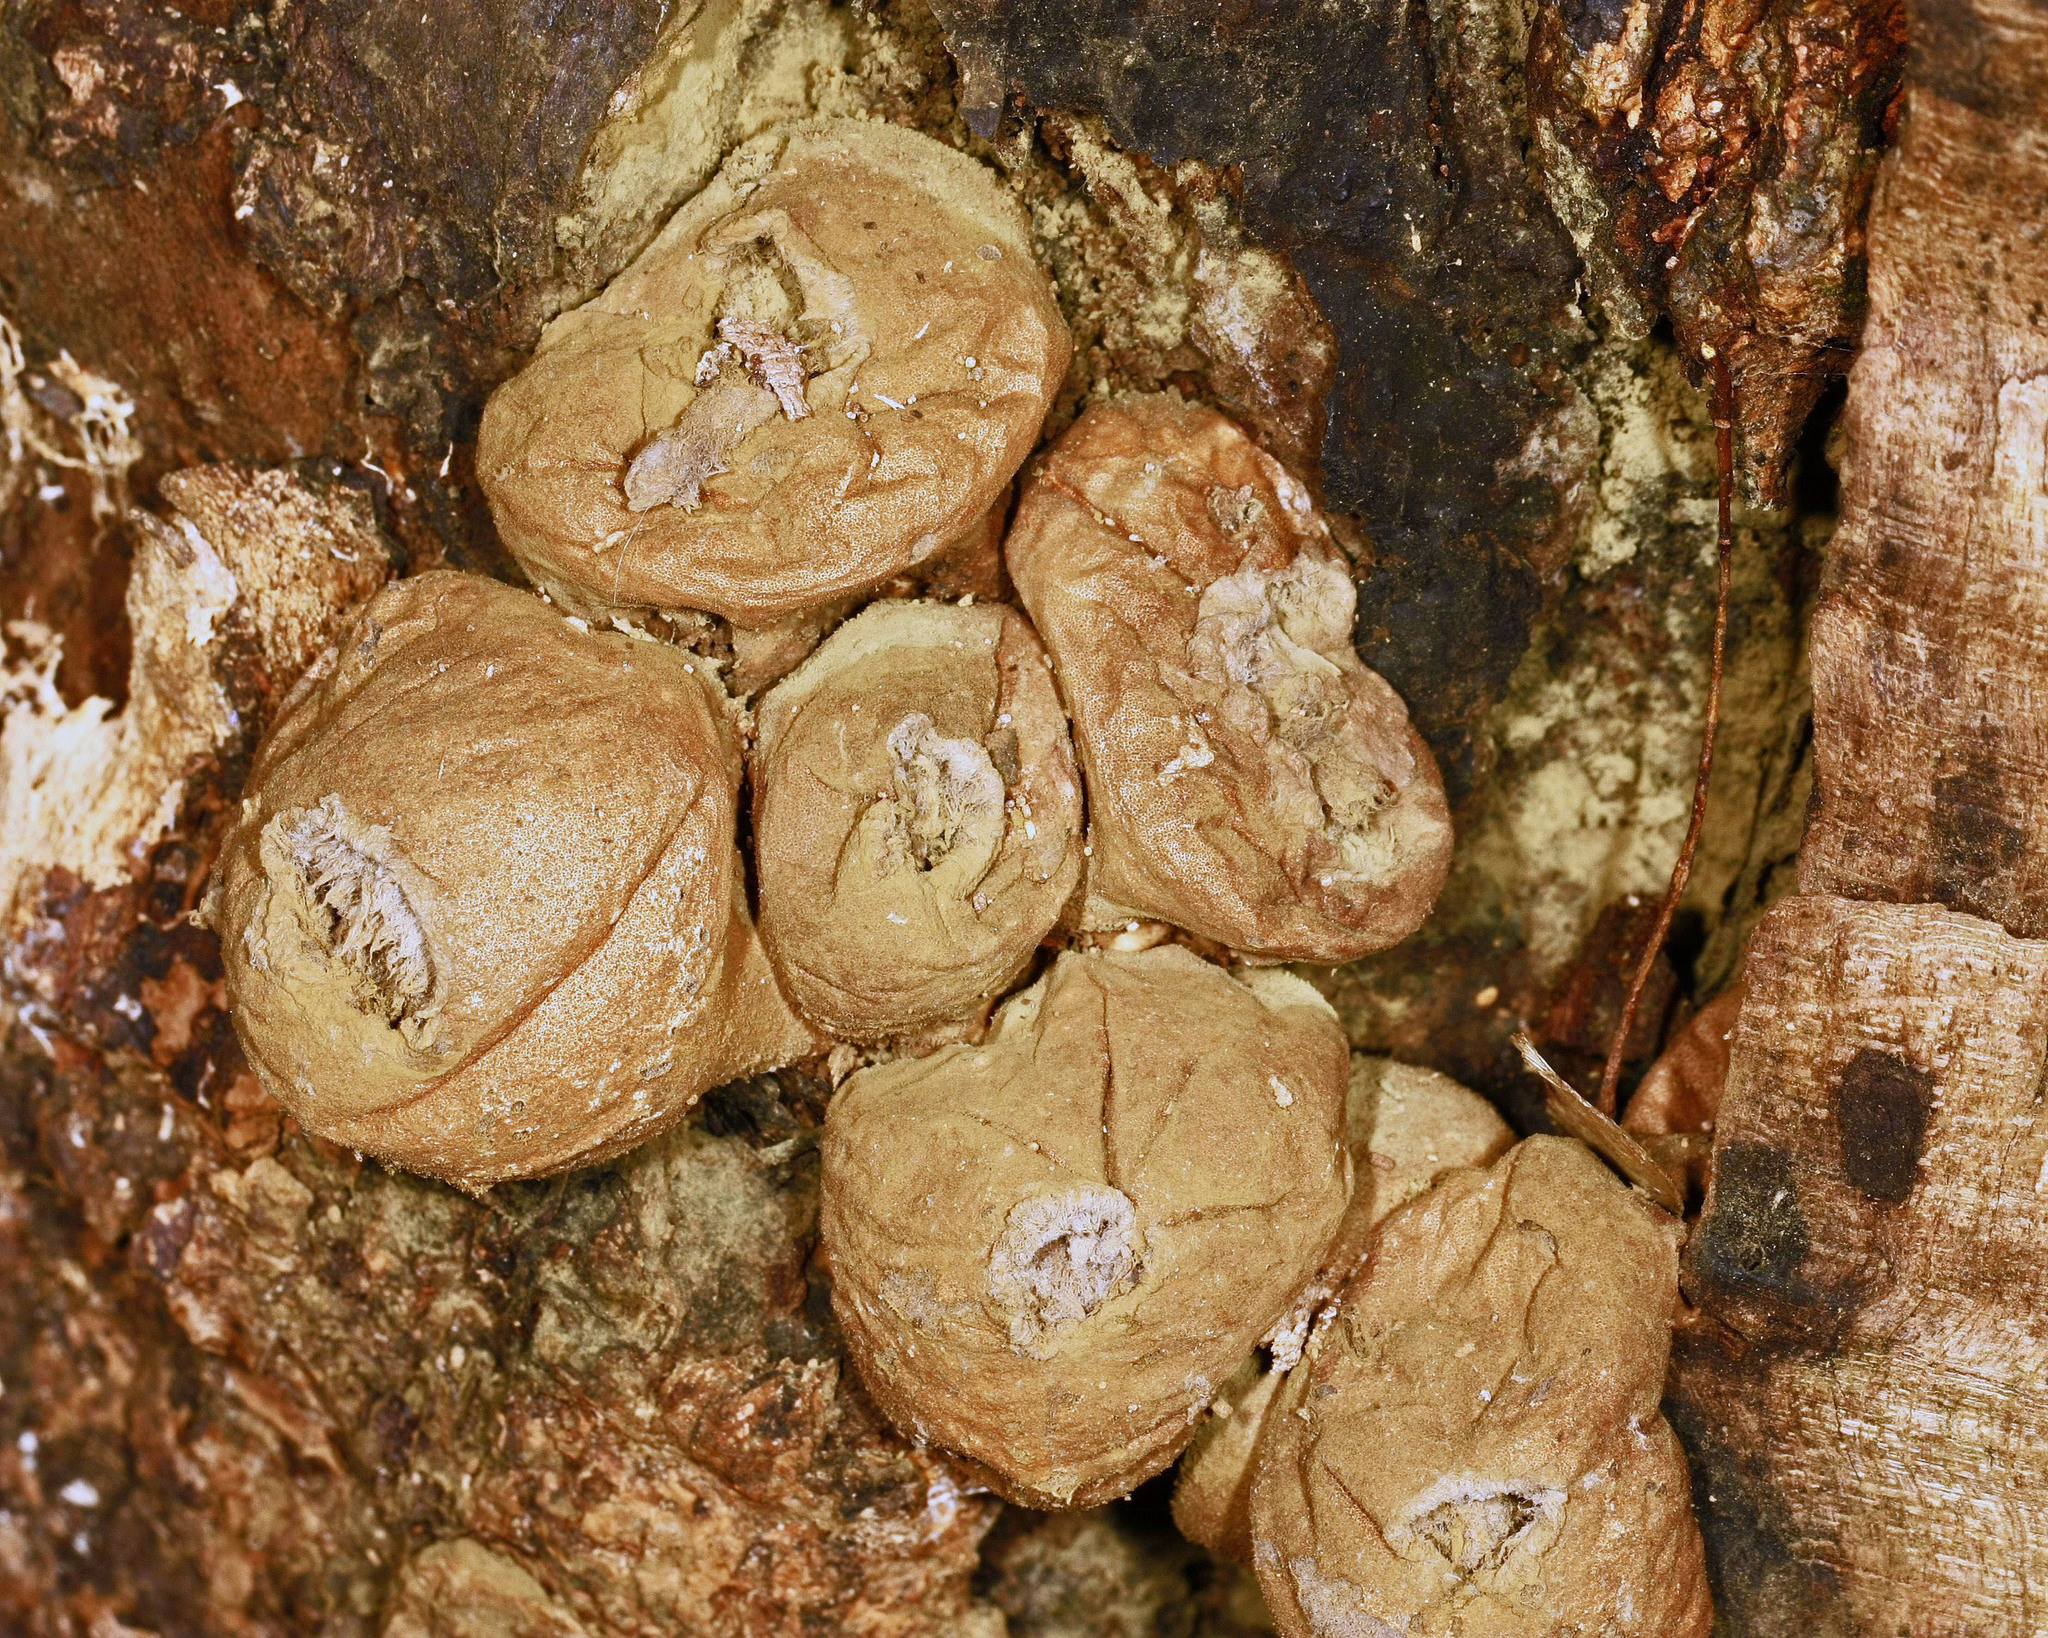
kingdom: Fungi
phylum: Basidiomycota
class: Agaricomycetes
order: Agaricales
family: Lycoperdaceae
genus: Apioperdon
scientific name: Apioperdon pyriforme
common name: Pear-shaped puffball
